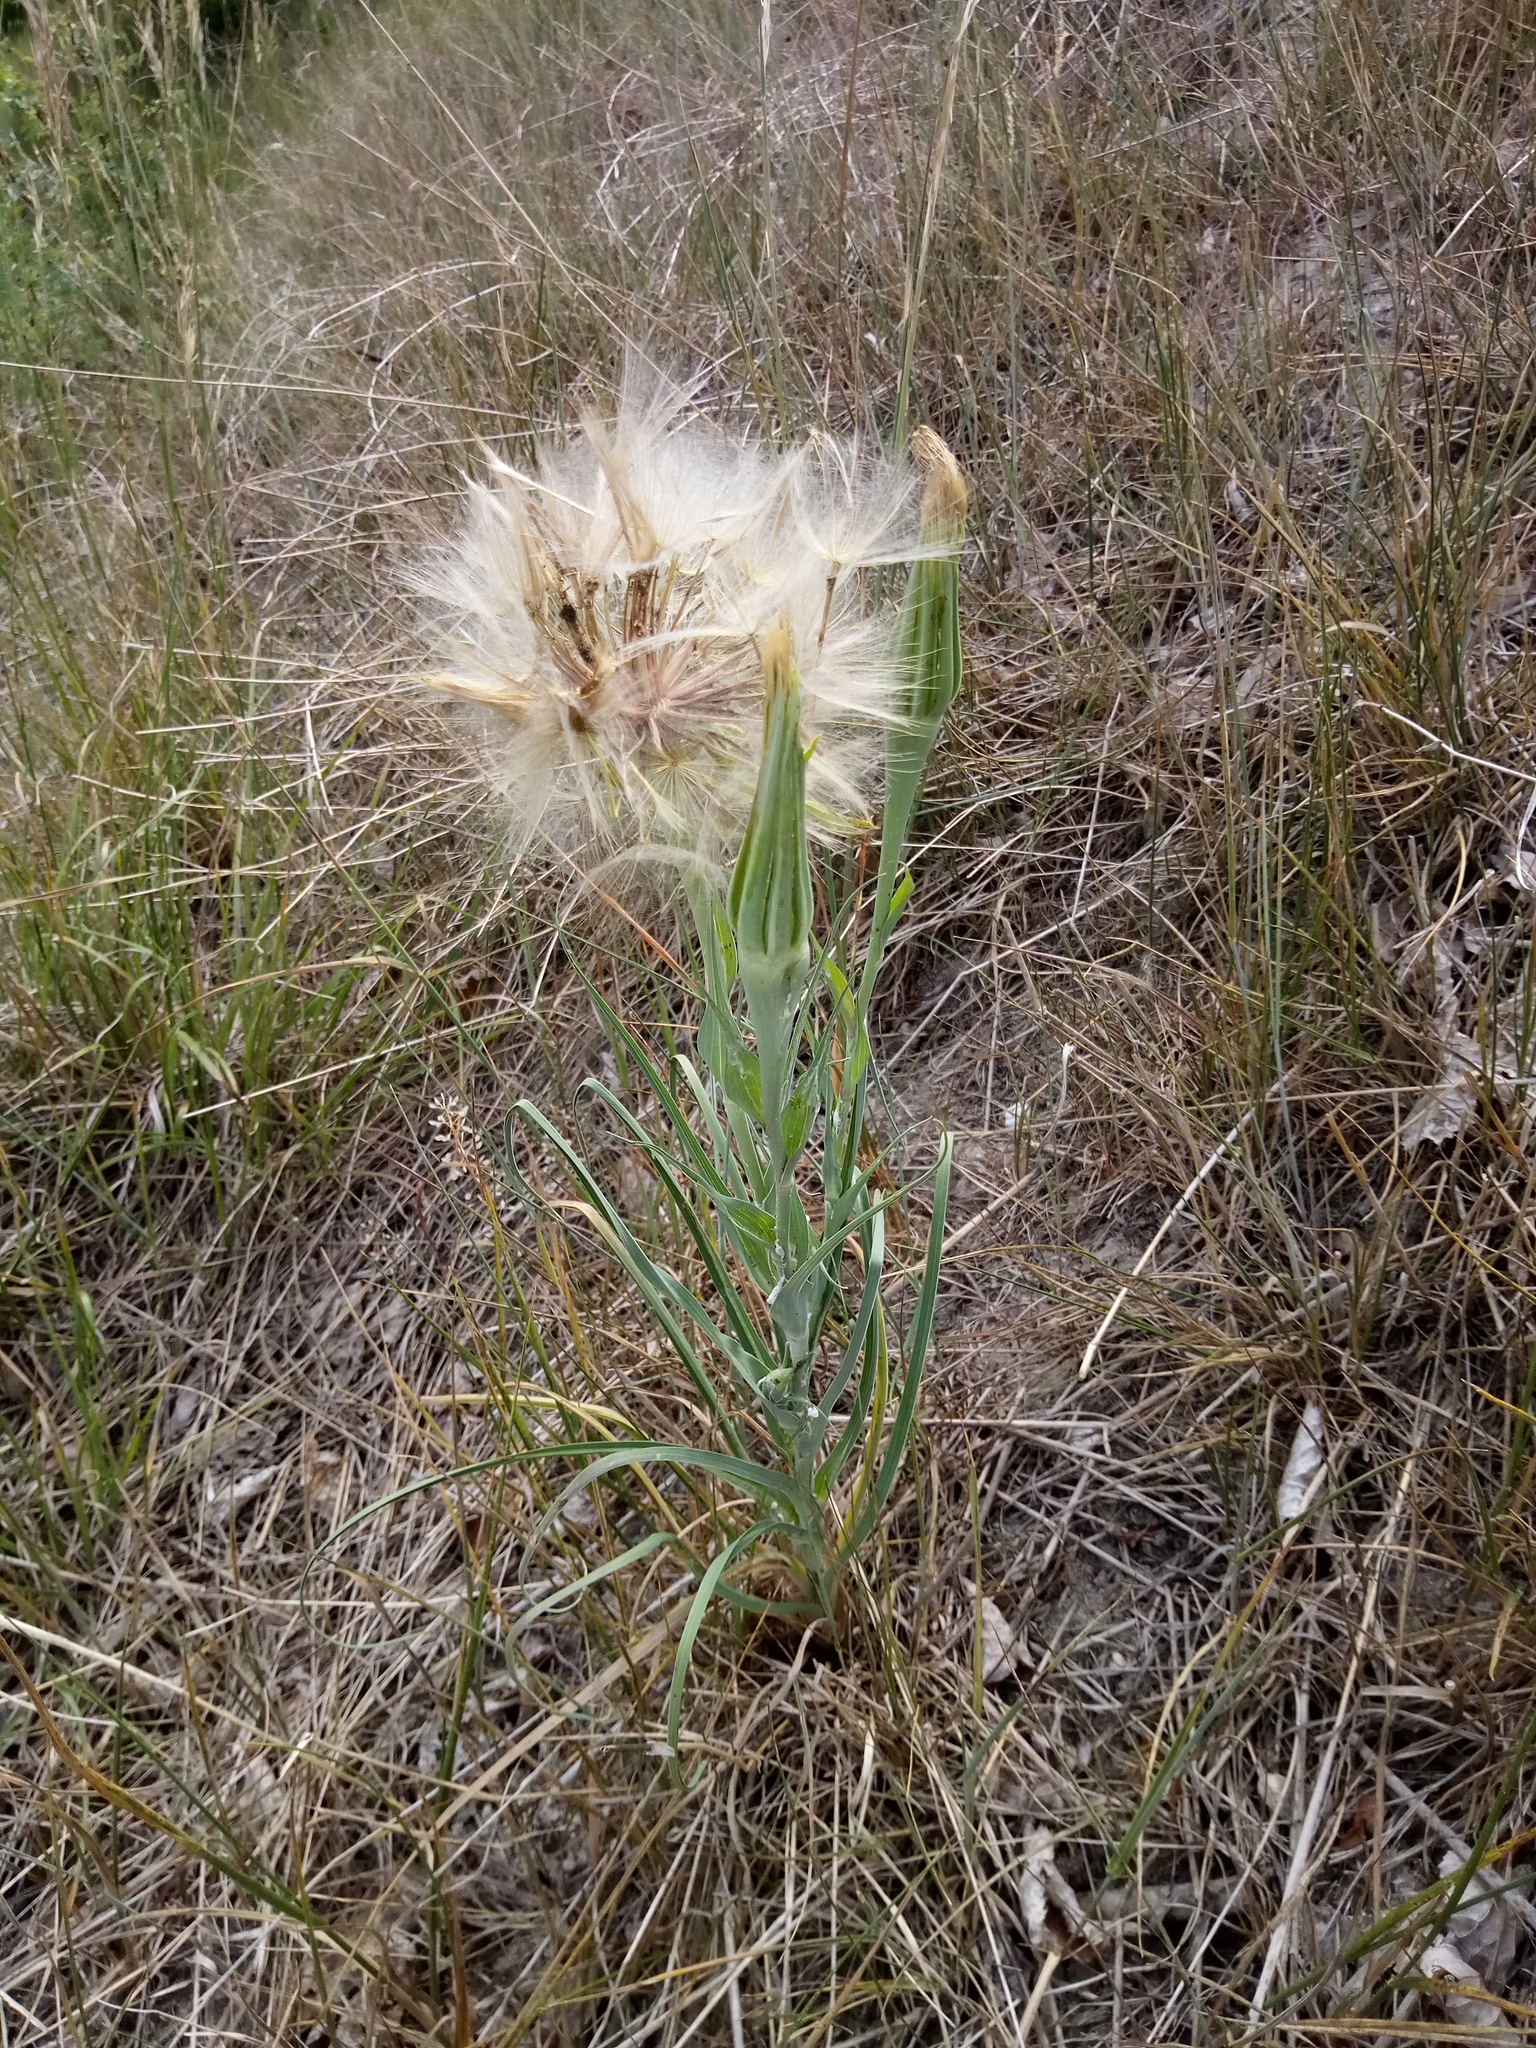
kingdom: Plantae
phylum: Tracheophyta
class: Magnoliopsida
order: Asterales
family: Asteraceae
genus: Tragopogon
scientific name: Tragopogon dubius
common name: Yellow salsify
